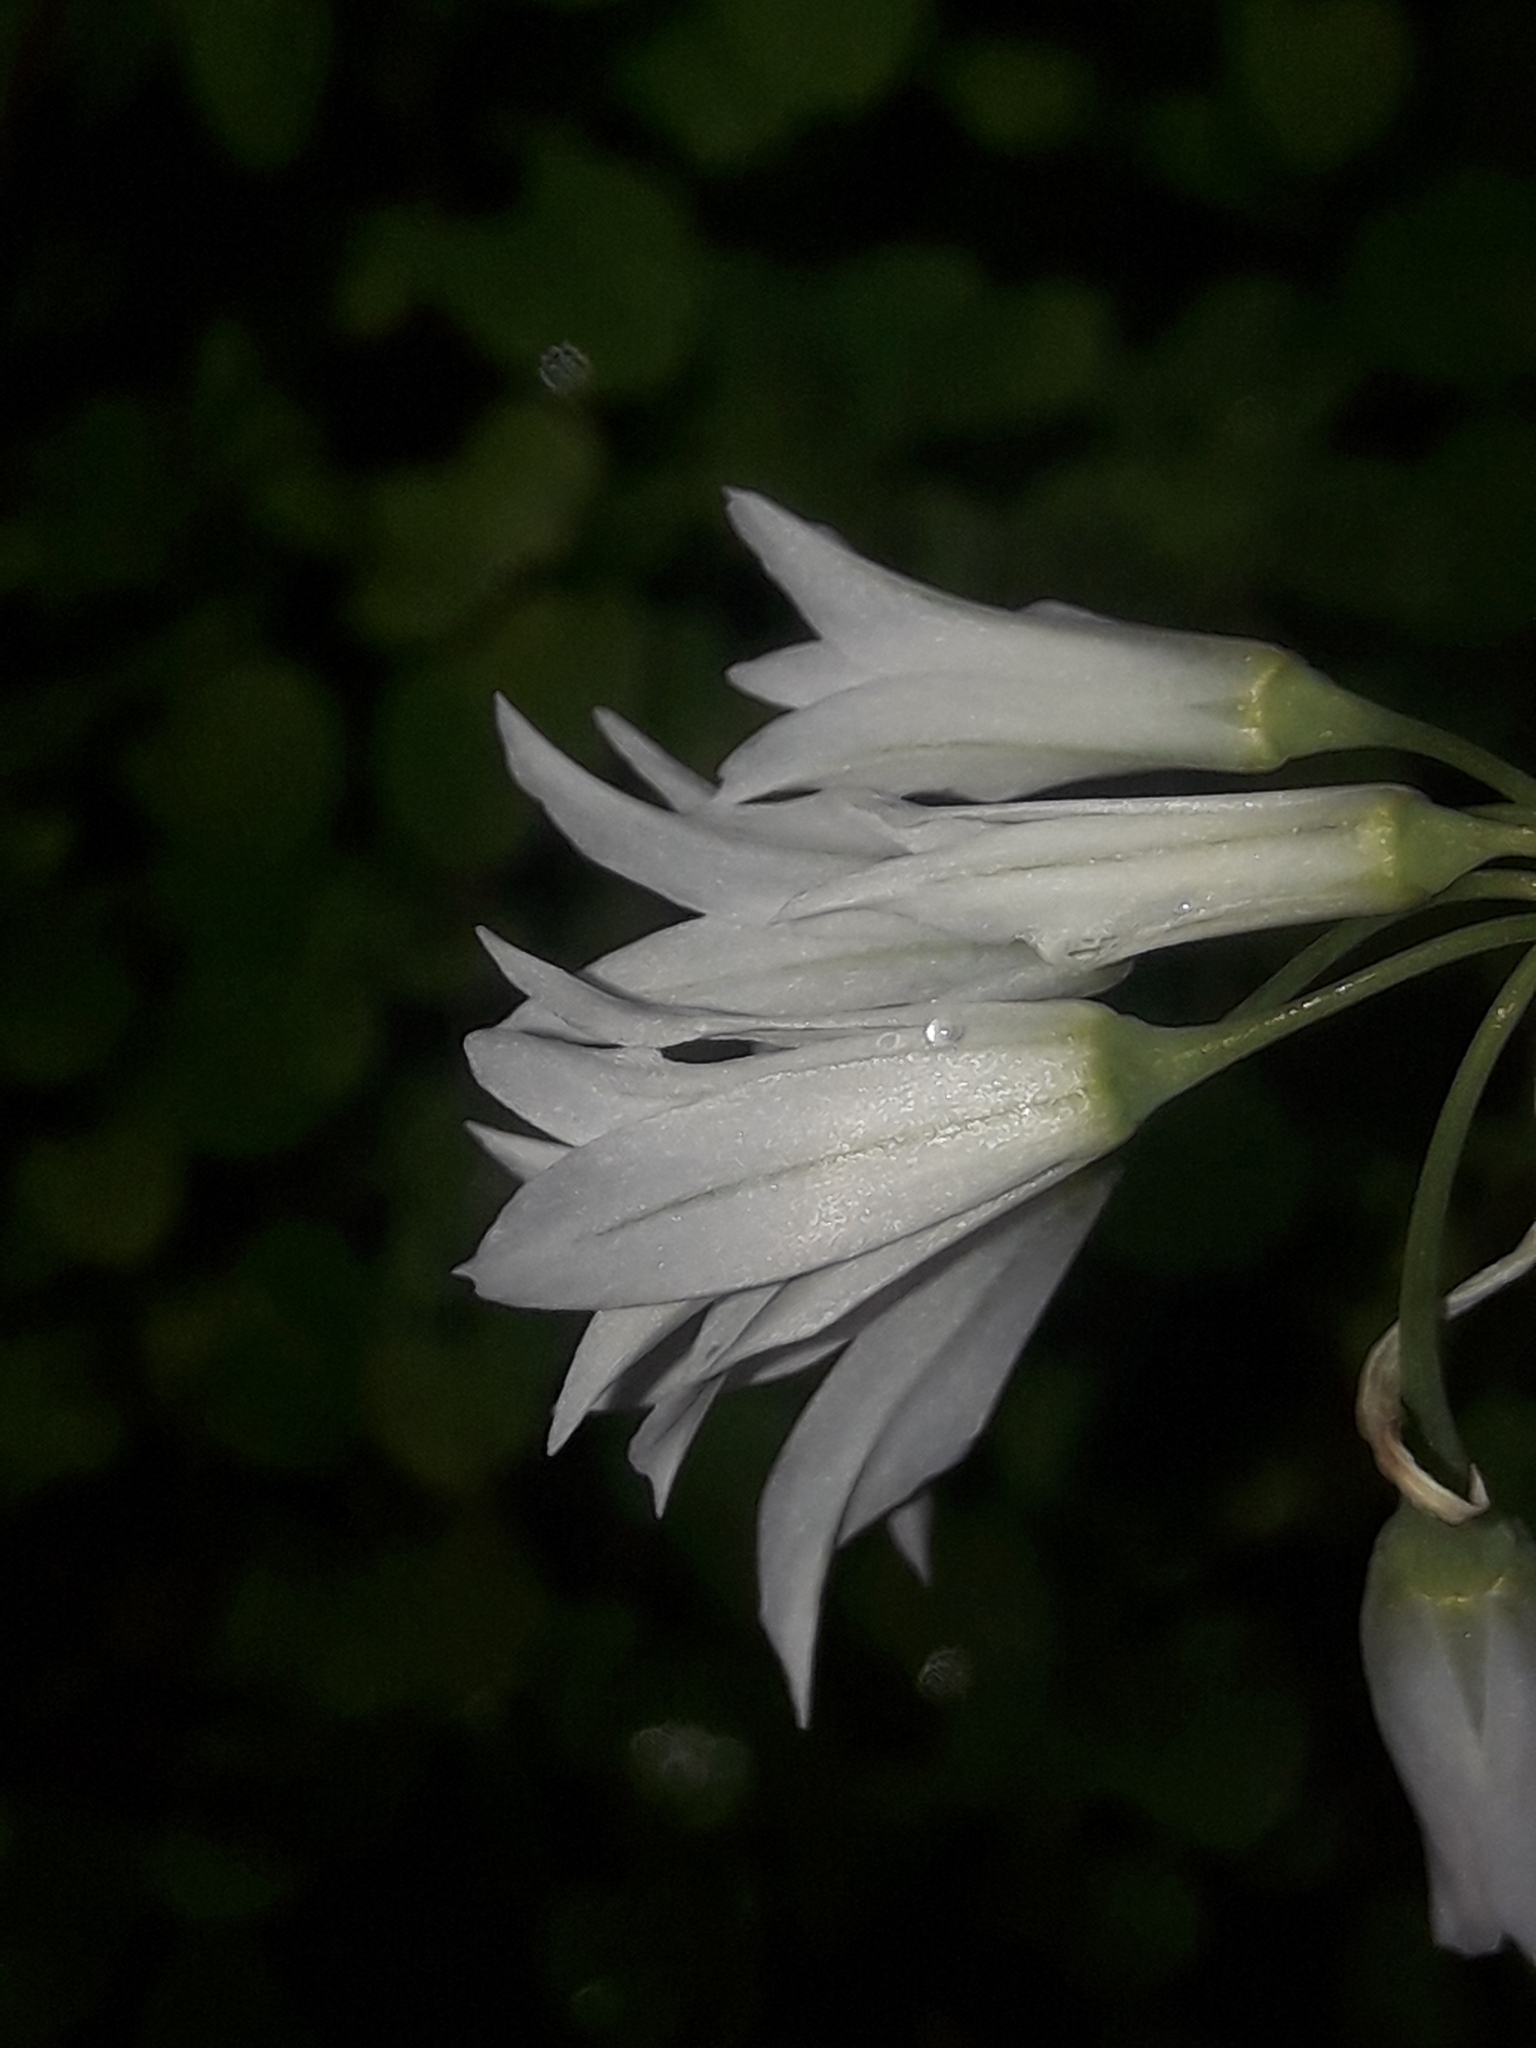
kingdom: Plantae
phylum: Tracheophyta
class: Liliopsida
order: Asparagales
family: Amaryllidaceae
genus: Allium
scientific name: Allium triquetrum
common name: Three-cornered garlic
